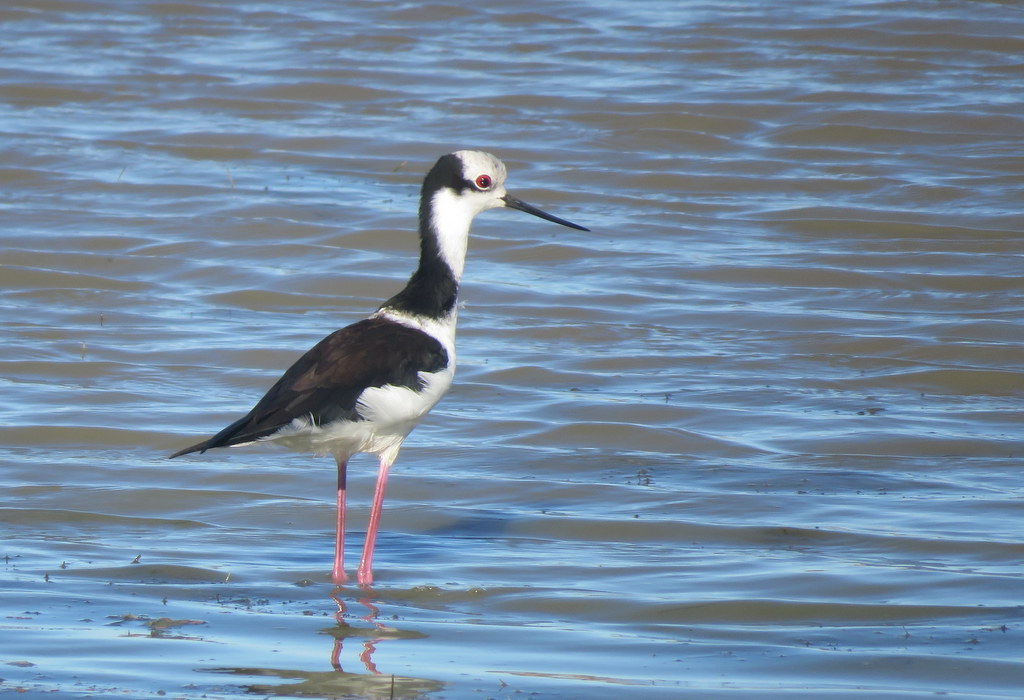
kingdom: Animalia
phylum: Chordata
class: Aves
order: Charadriiformes
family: Recurvirostridae
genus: Himantopus
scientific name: Himantopus mexicanus
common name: Black-necked stilt
